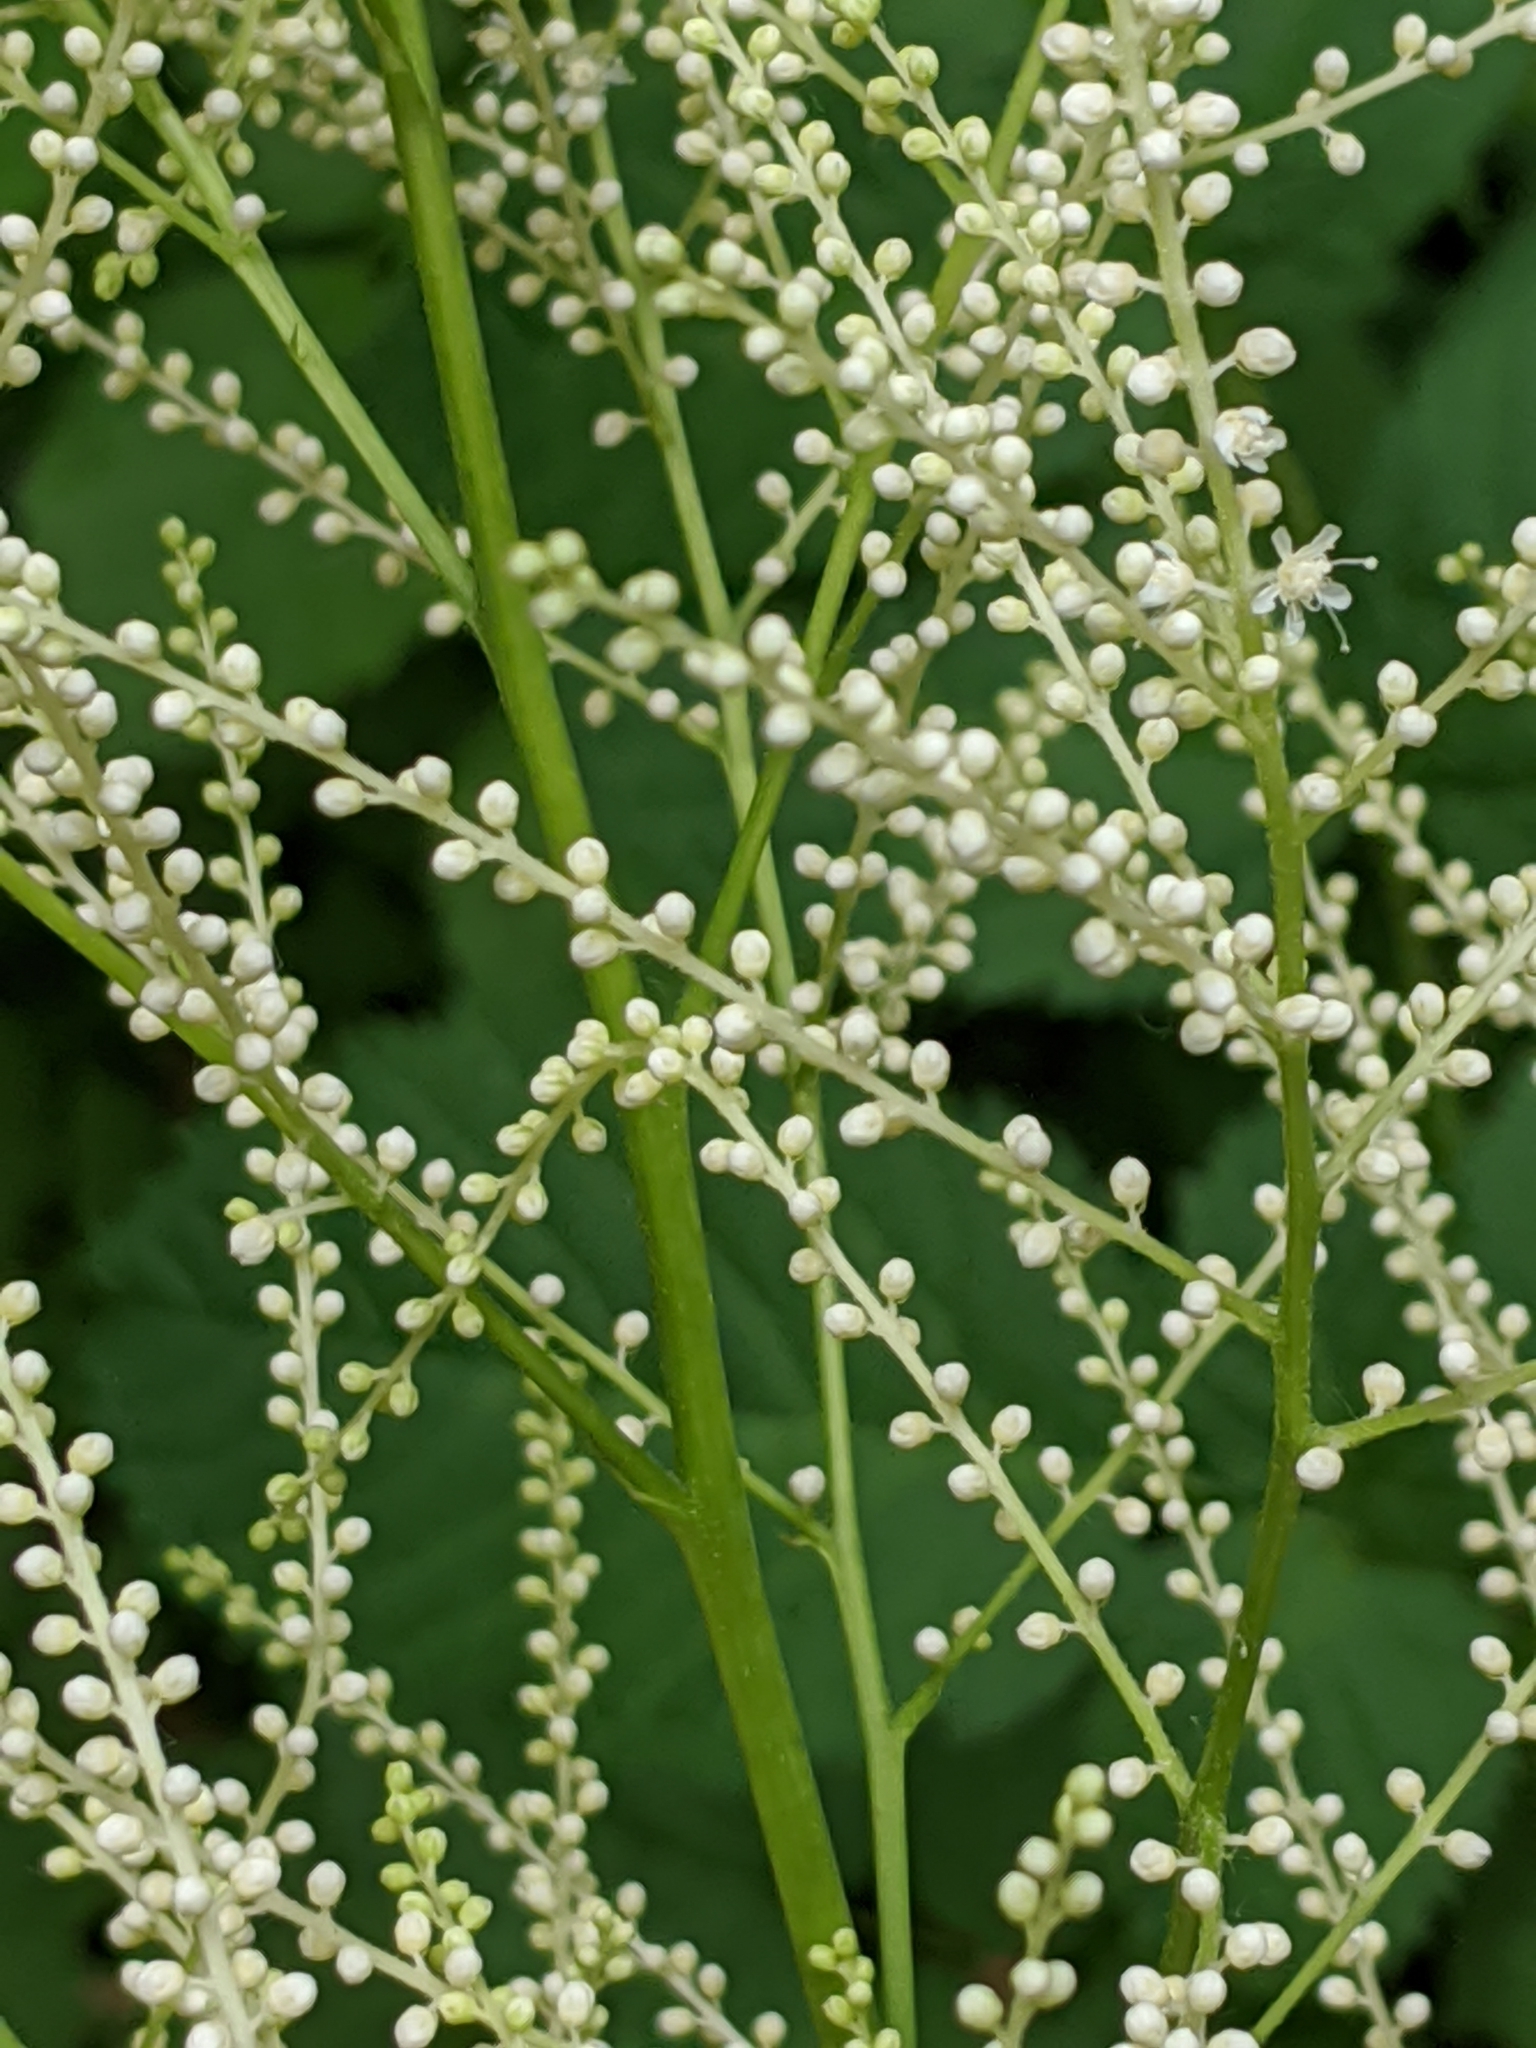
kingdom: Plantae
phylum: Tracheophyta
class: Magnoliopsida
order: Rosales
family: Rosaceae
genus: Aruncus
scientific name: Aruncus dioicus
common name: Buck's-beard
